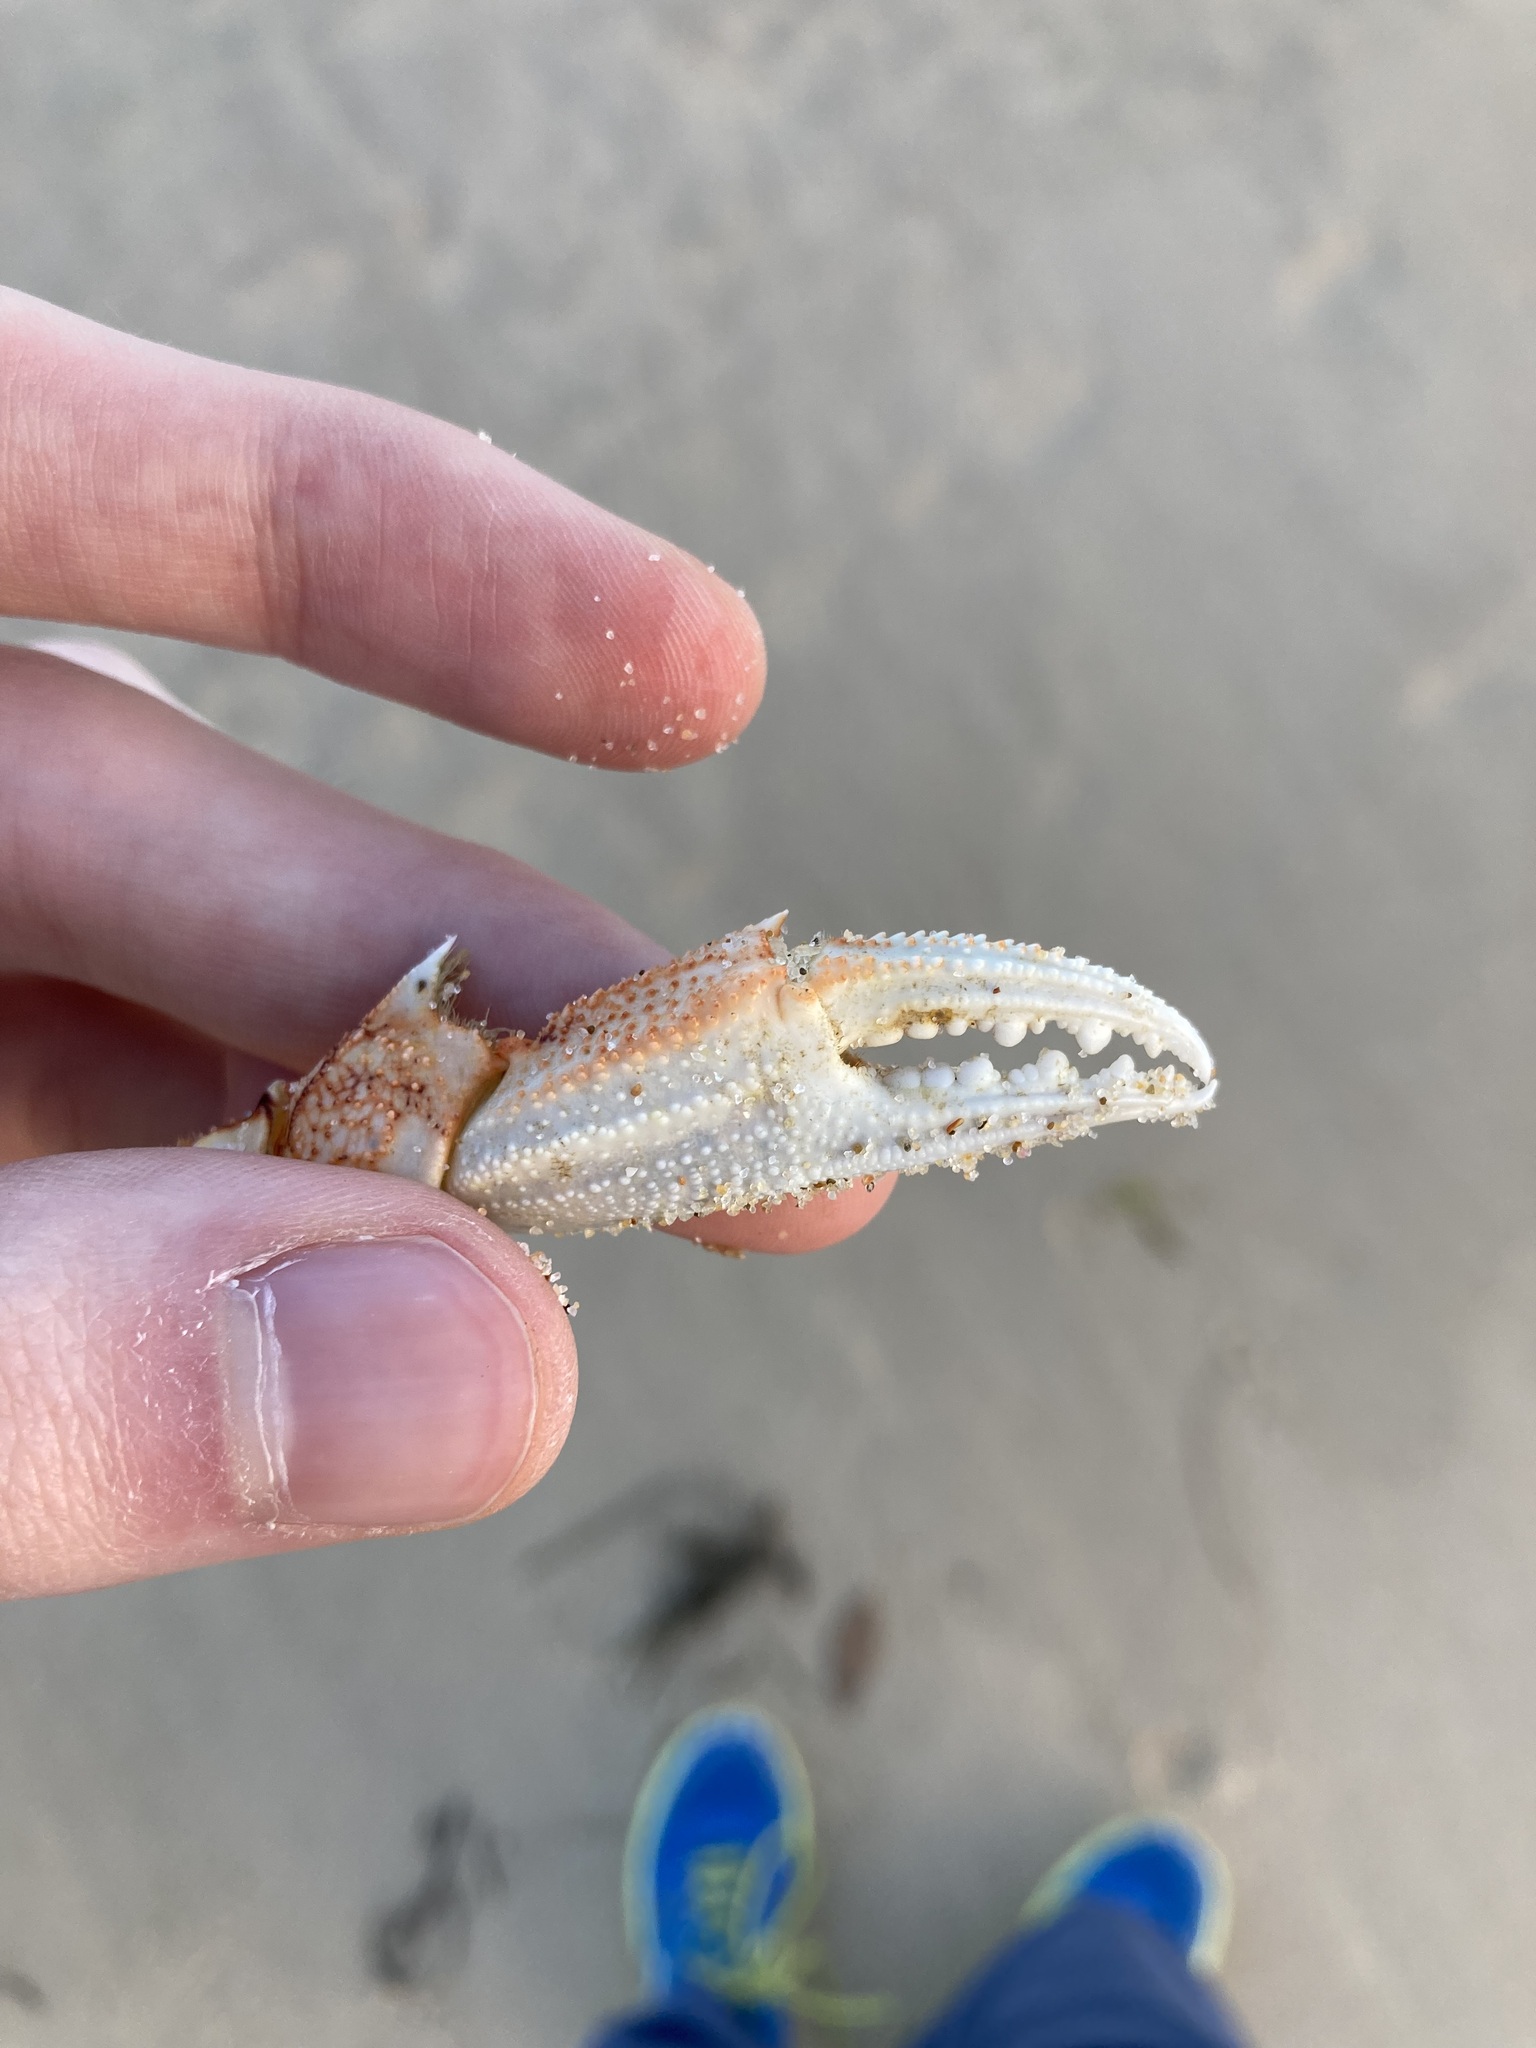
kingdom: Animalia
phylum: Arthropoda
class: Malacostraca
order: Decapoda
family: Ovalipidae
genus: Ovalipes
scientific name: Ovalipes australiensis
